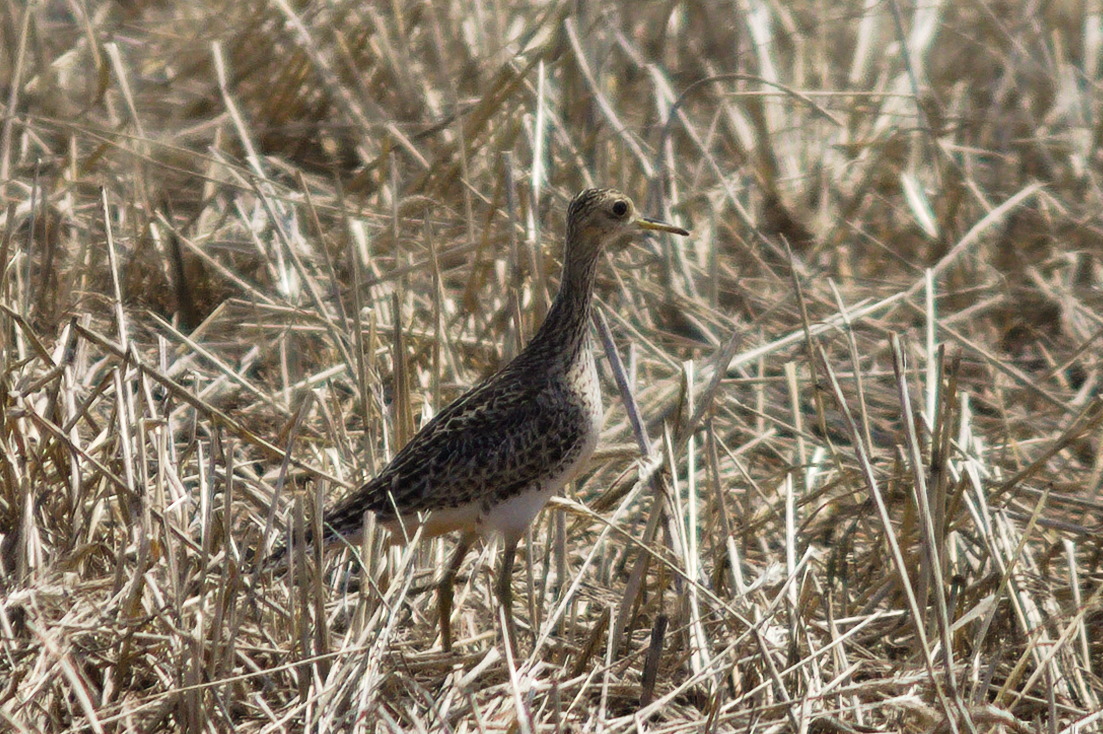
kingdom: Animalia
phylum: Chordata
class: Aves
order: Charadriiformes
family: Scolopacidae
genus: Bartramia
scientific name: Bartramia longicauda
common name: Upland sandpiper
